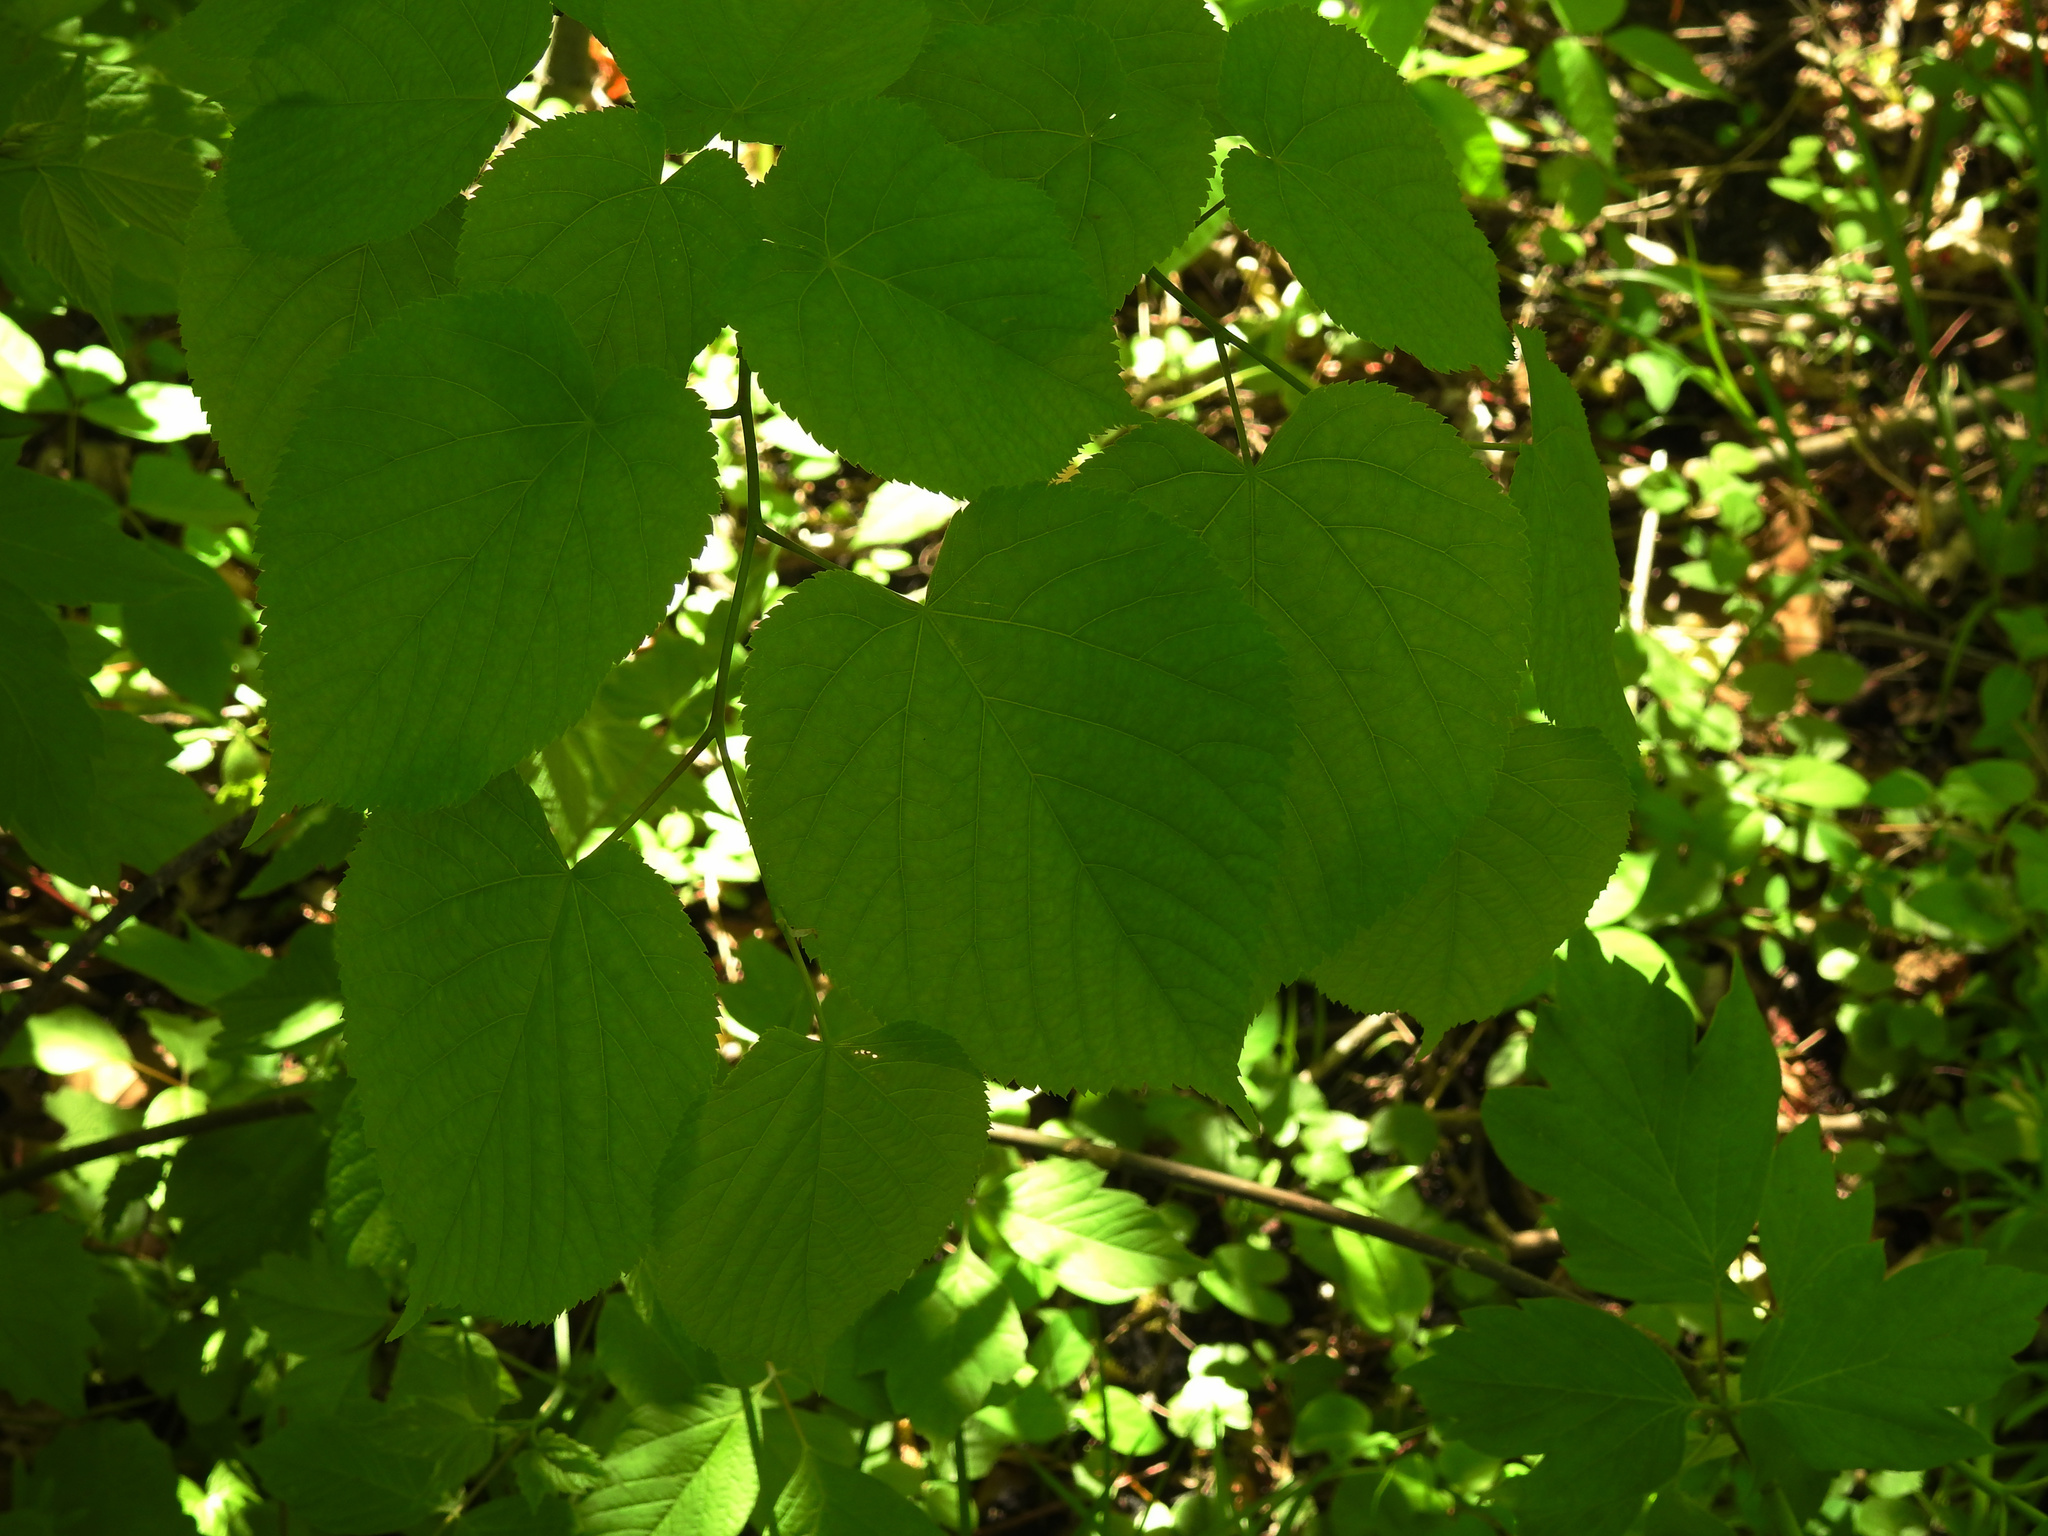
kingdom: Plantae
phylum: Tracheophyta
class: Magnoliopsida
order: Malvales
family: Malvaceae
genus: Tilia
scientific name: Tilia americana
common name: Basswood
